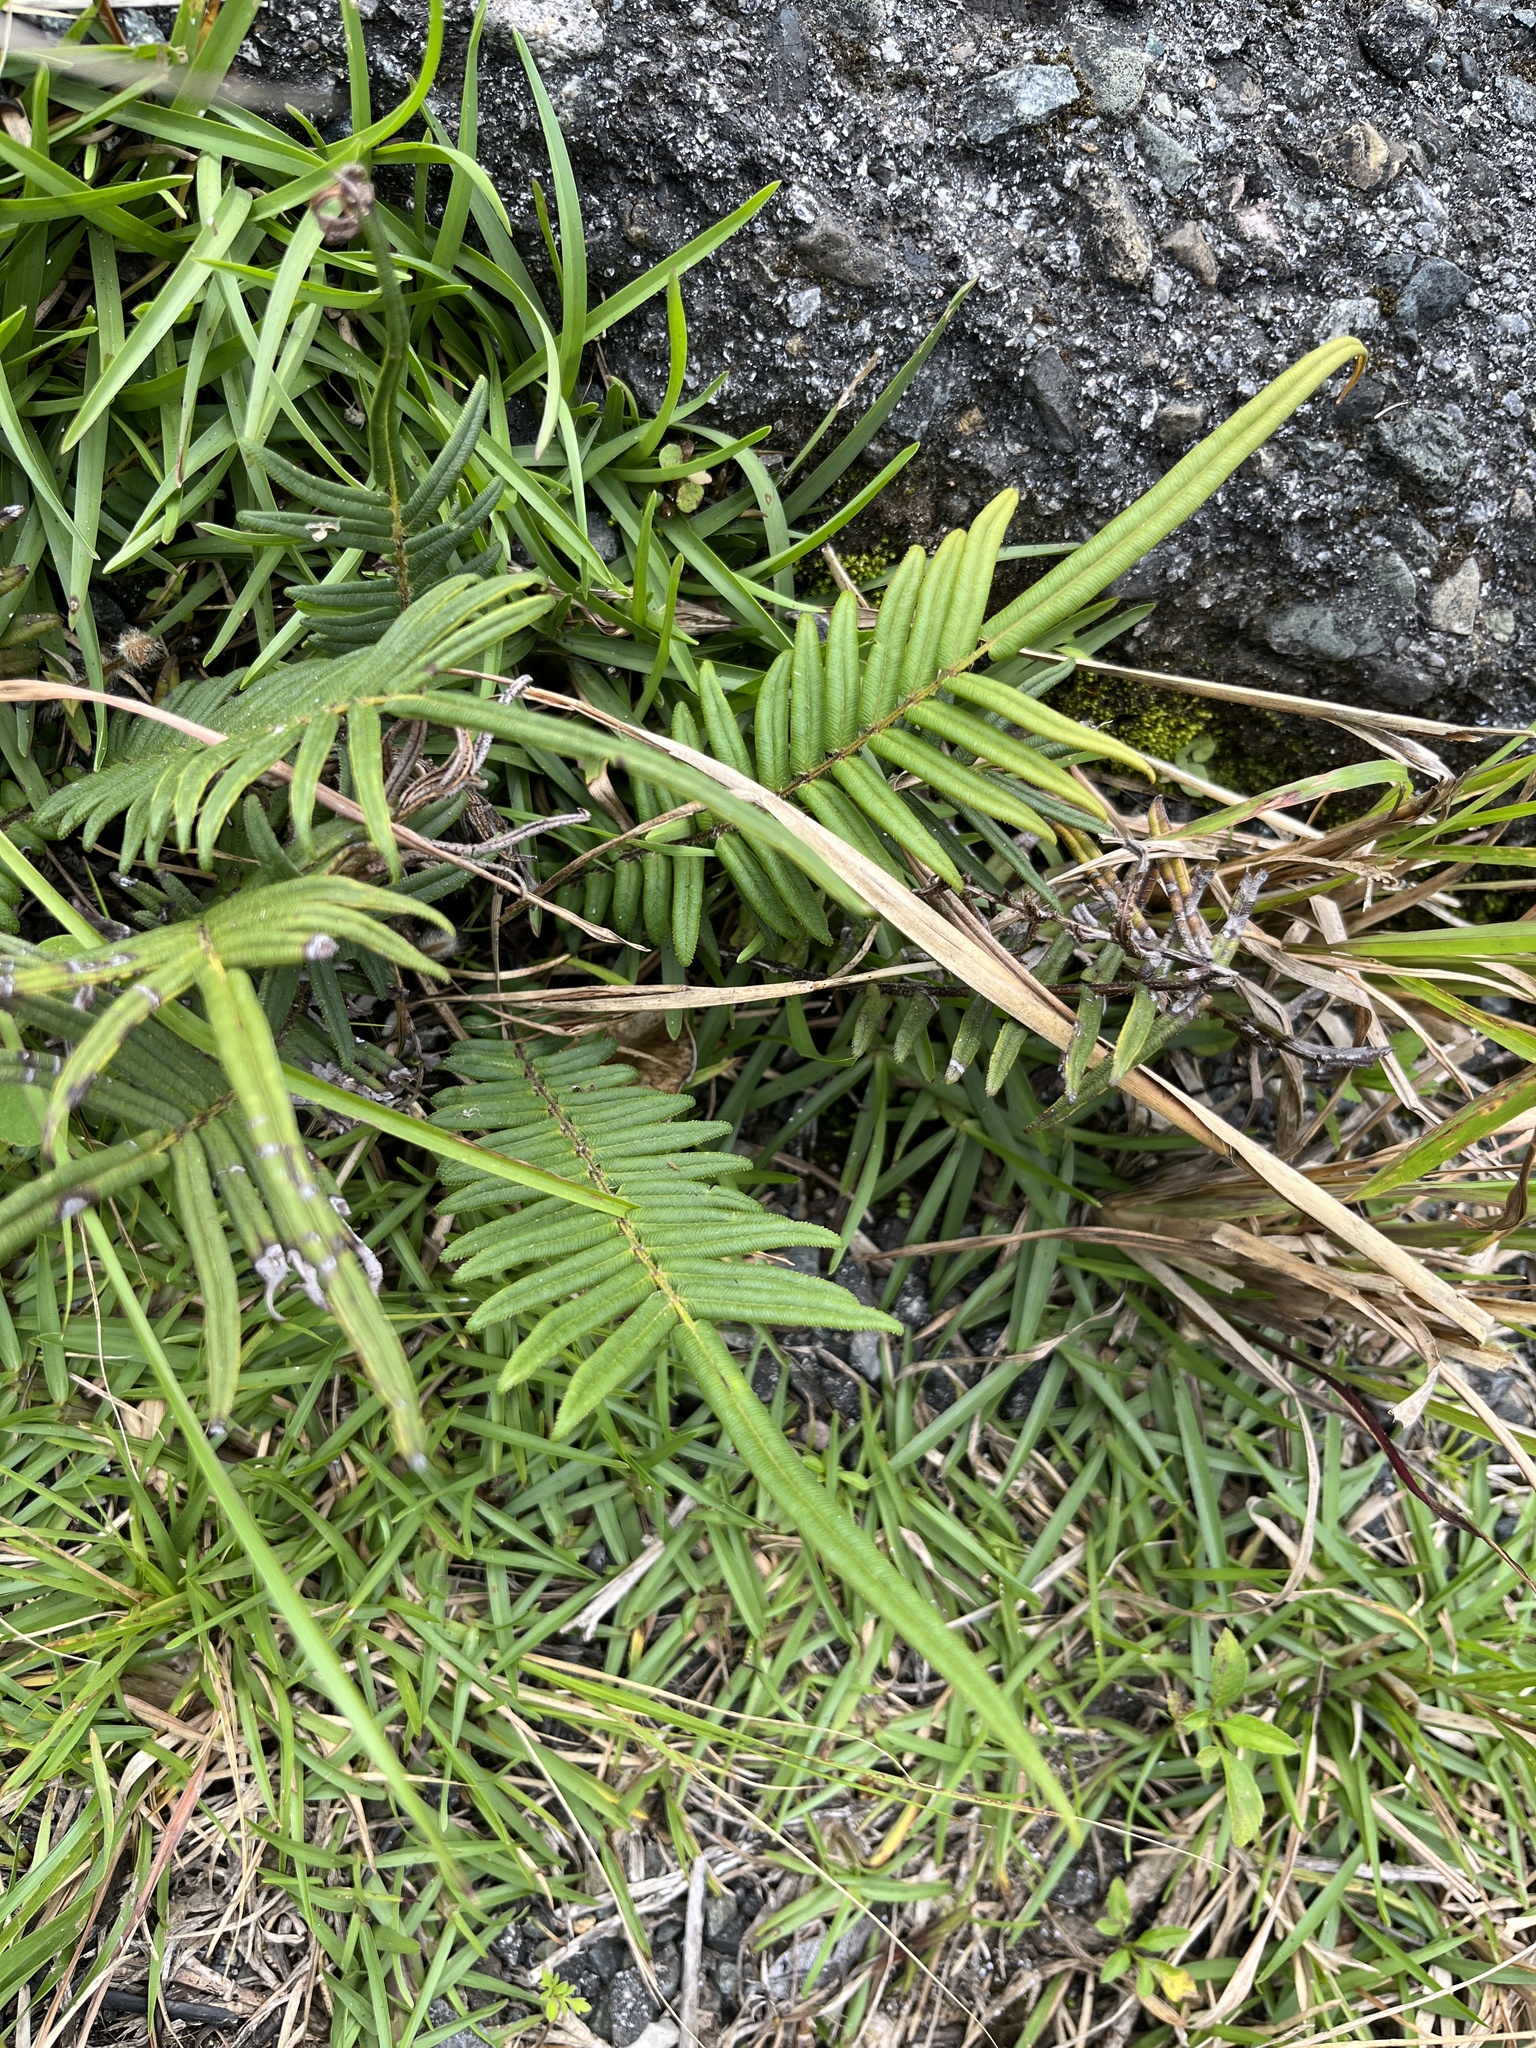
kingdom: Plantae
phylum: Tracheophyta
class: Polypodiopsida
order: Polypodiales
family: Pteridaceae
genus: Pteris
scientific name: Pteris vittata
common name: Ladder brake
